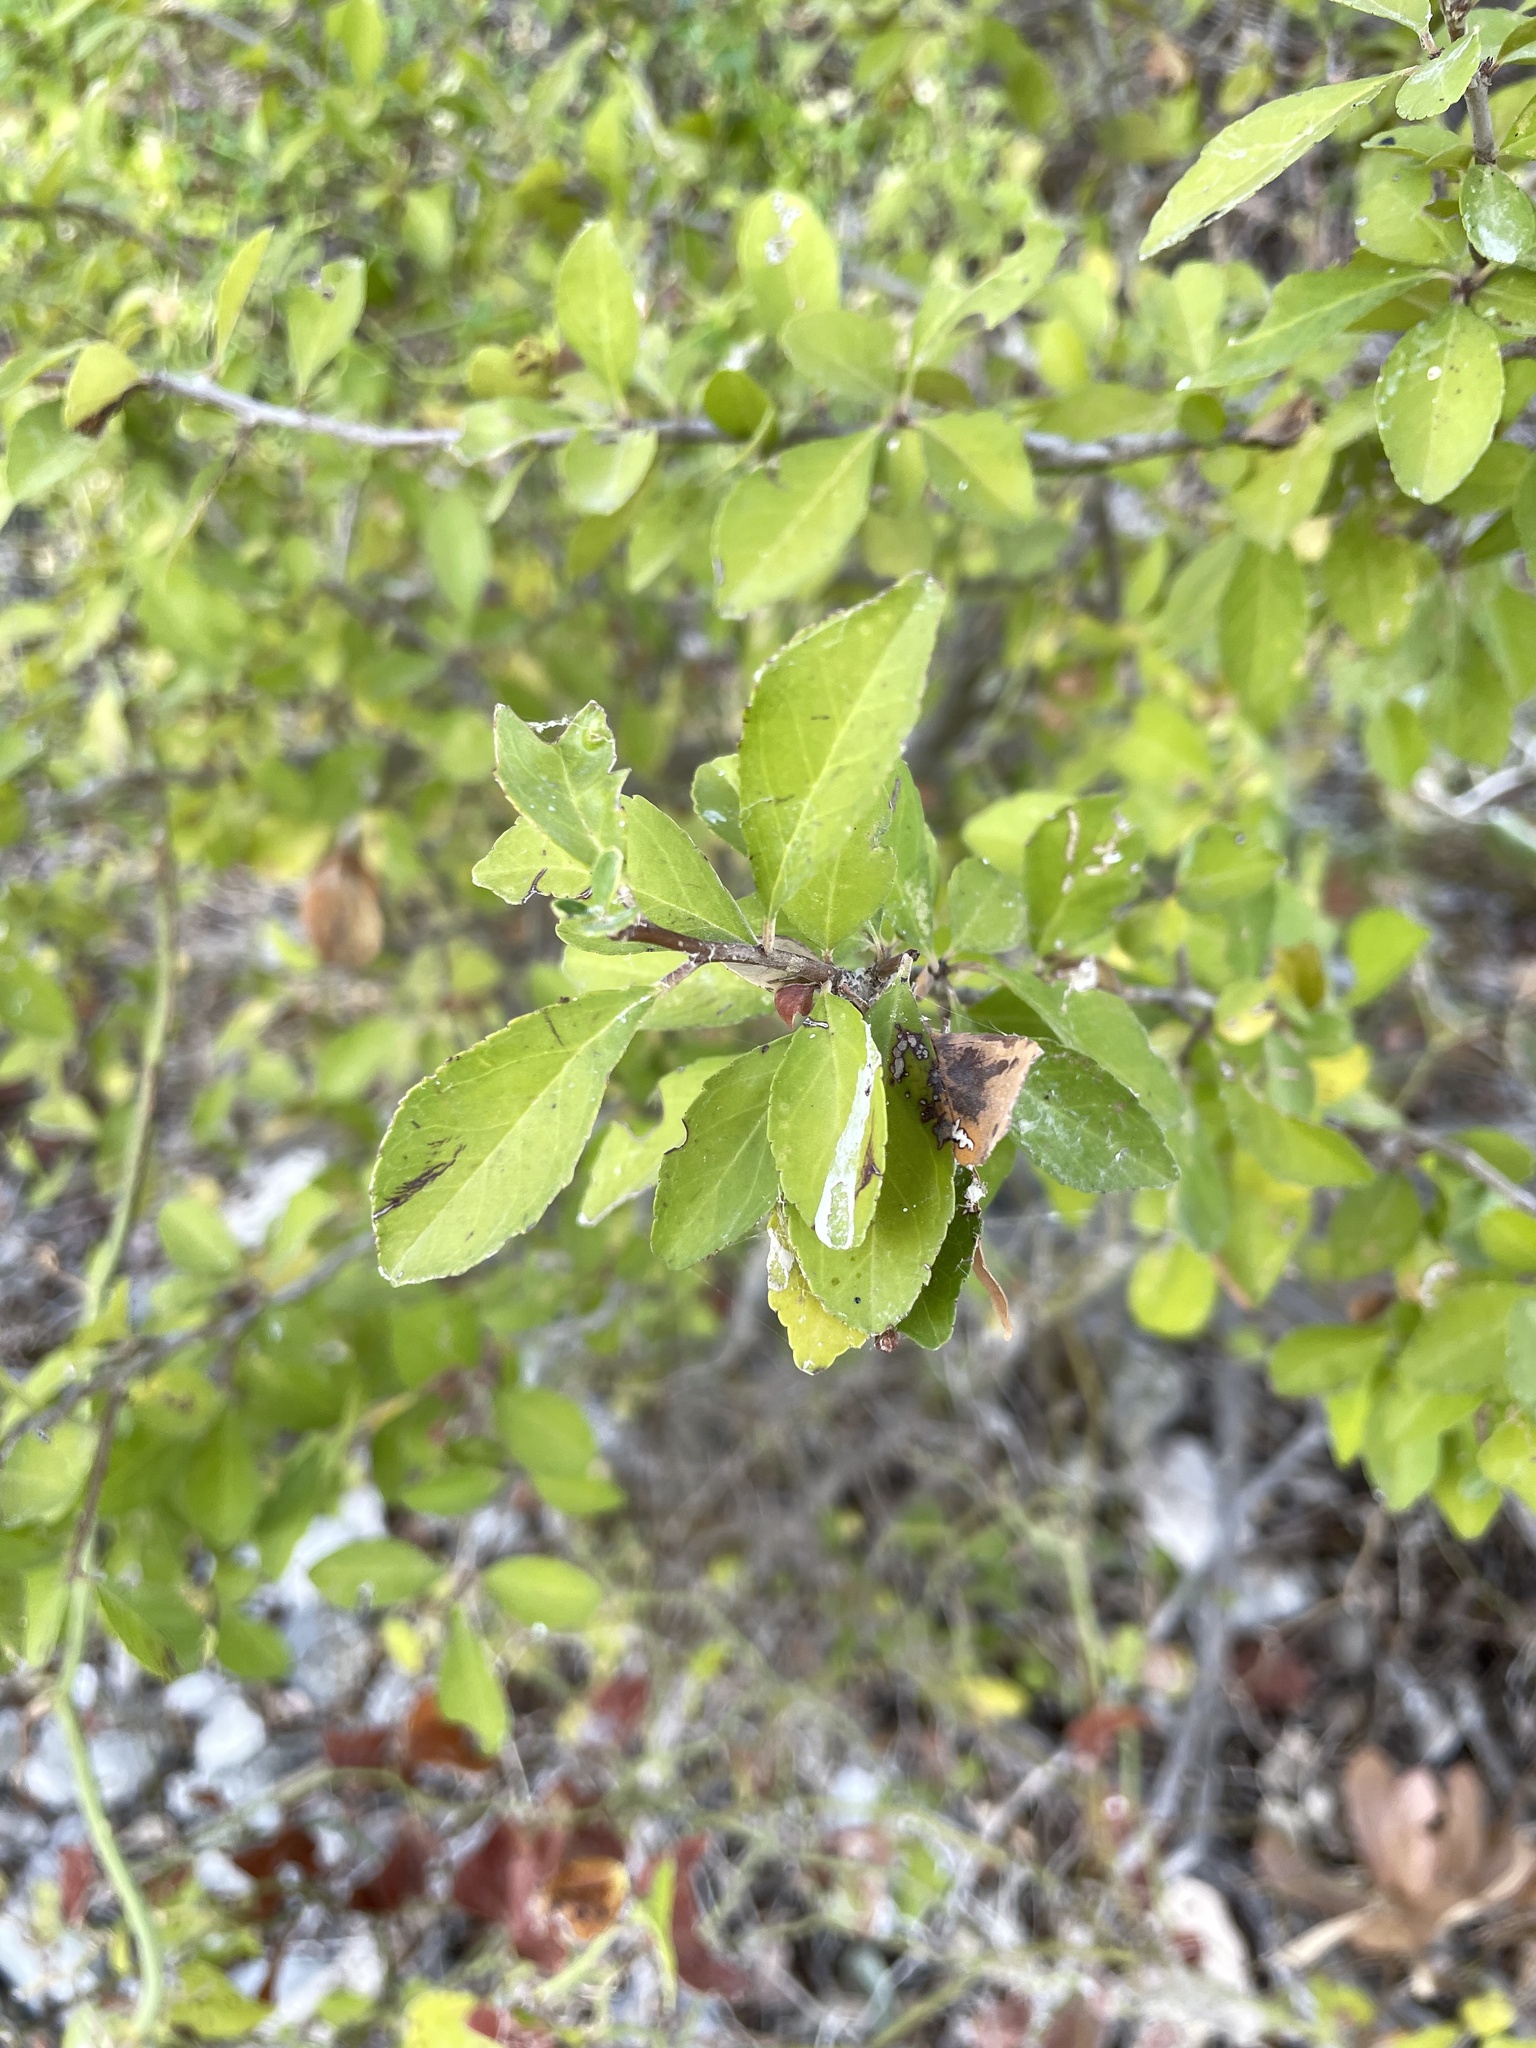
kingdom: Plantae
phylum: Tracheophyta
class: Magnoliopsida
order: Aquifoliales
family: Aquifoliaceae
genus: Ilex
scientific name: Ilex decidua
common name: Possum-haw
